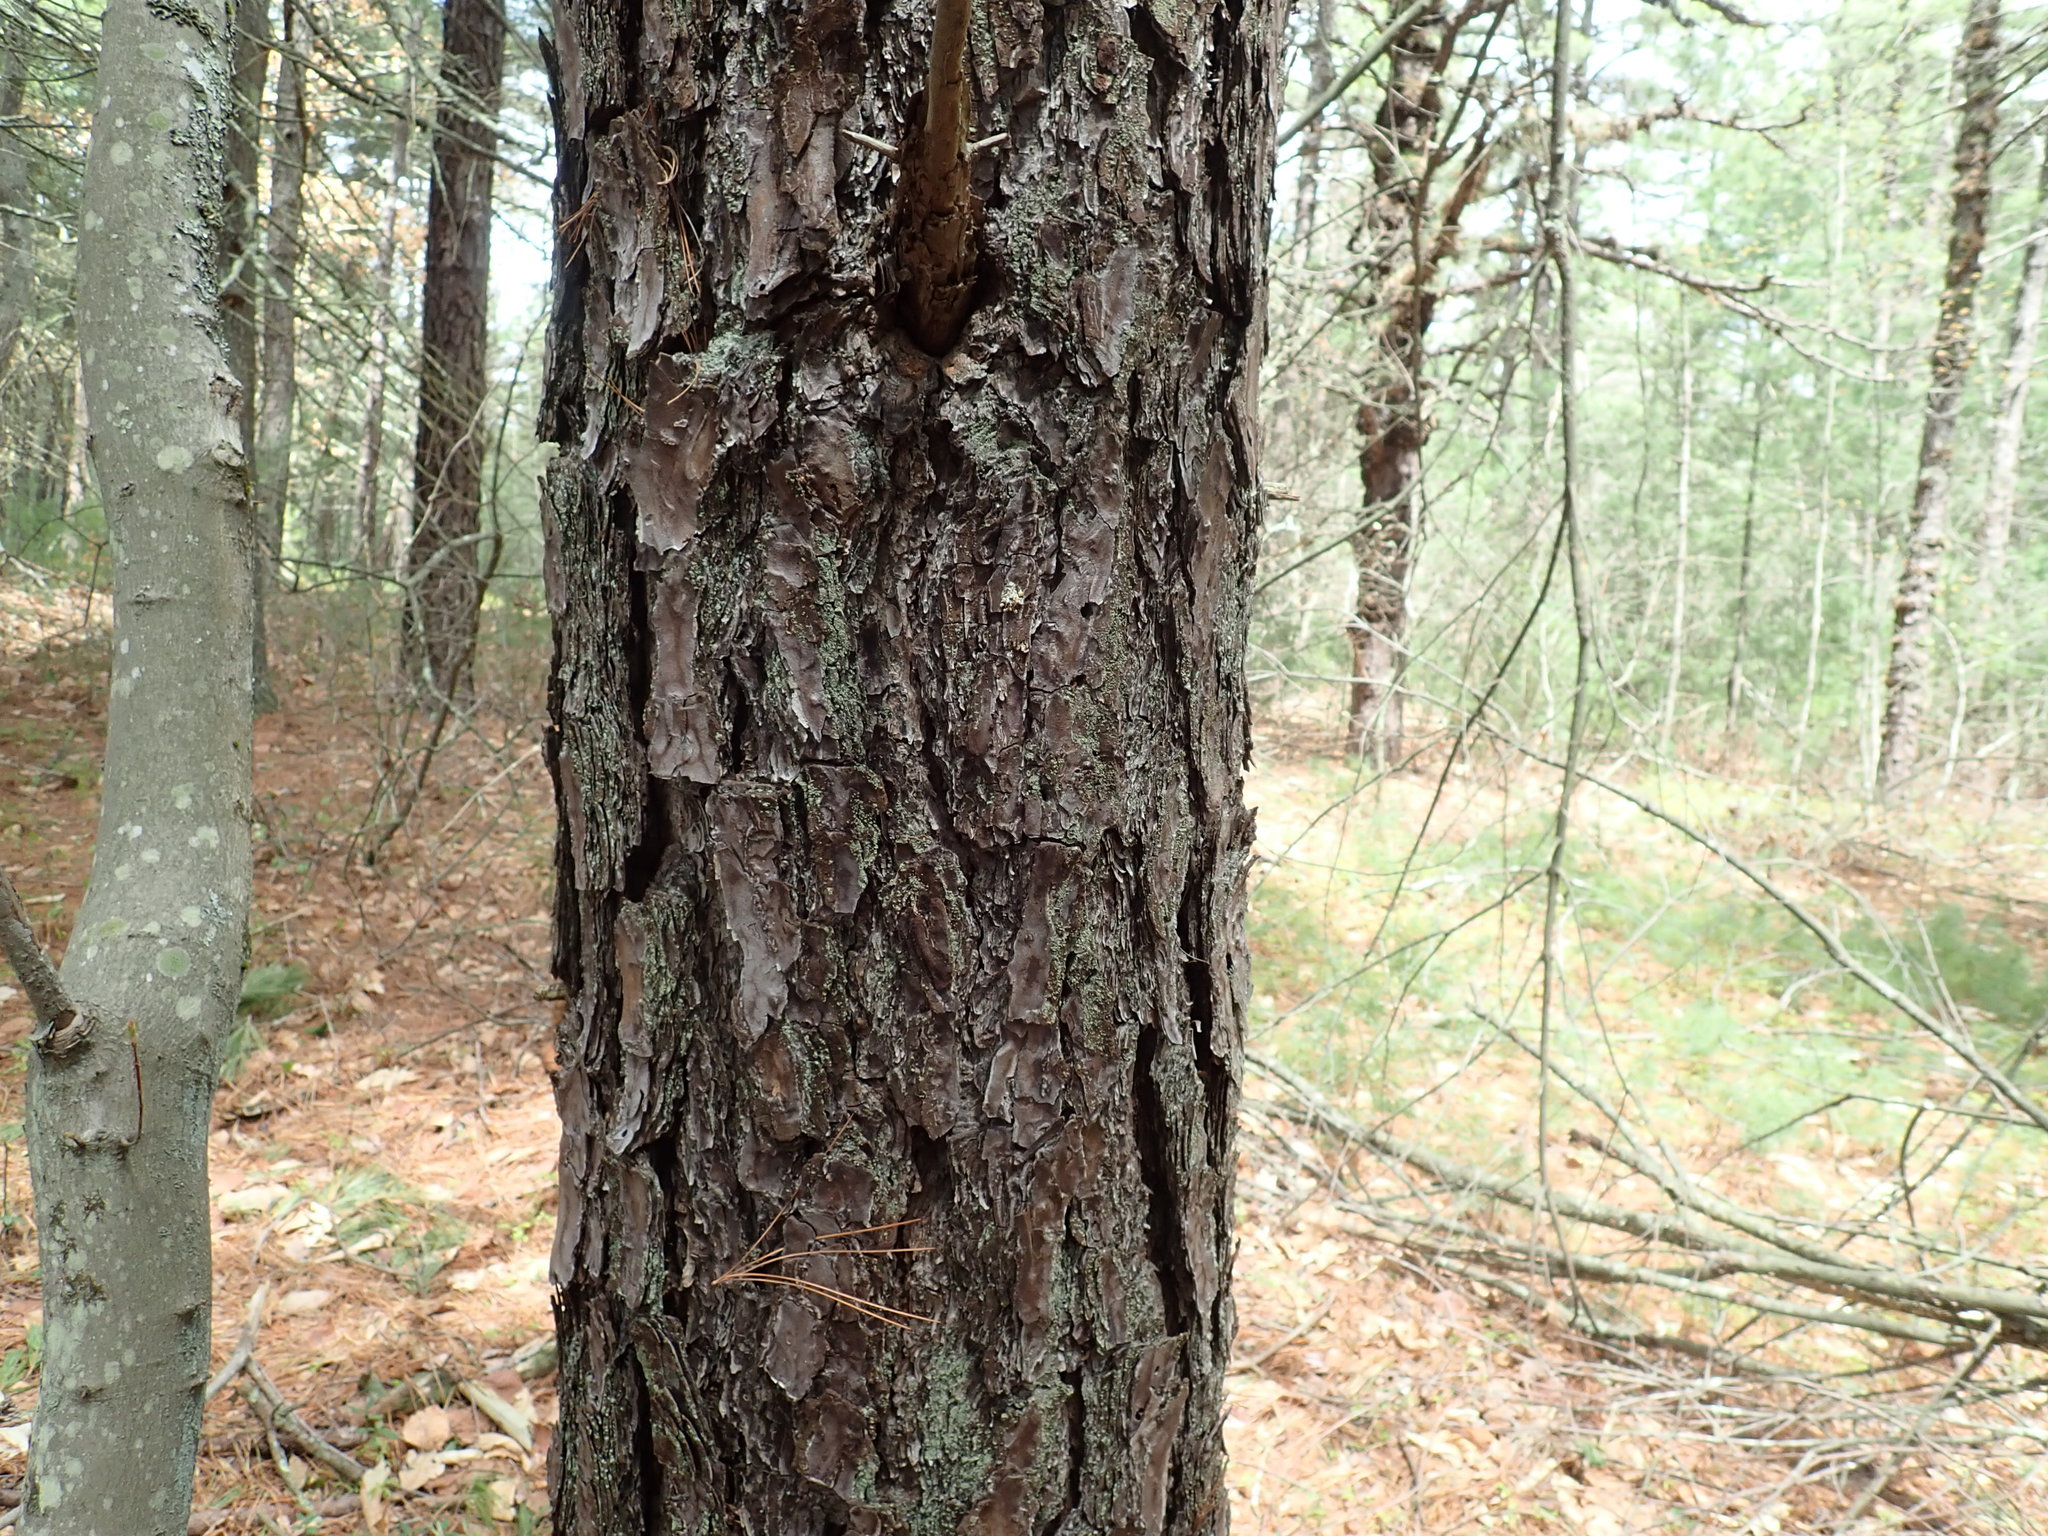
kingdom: Plantae
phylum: Tracheophyta
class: Pinopsida
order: Pinales
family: Pinaceae
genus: Pinus
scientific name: Pinus rigida
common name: Pitch pine
